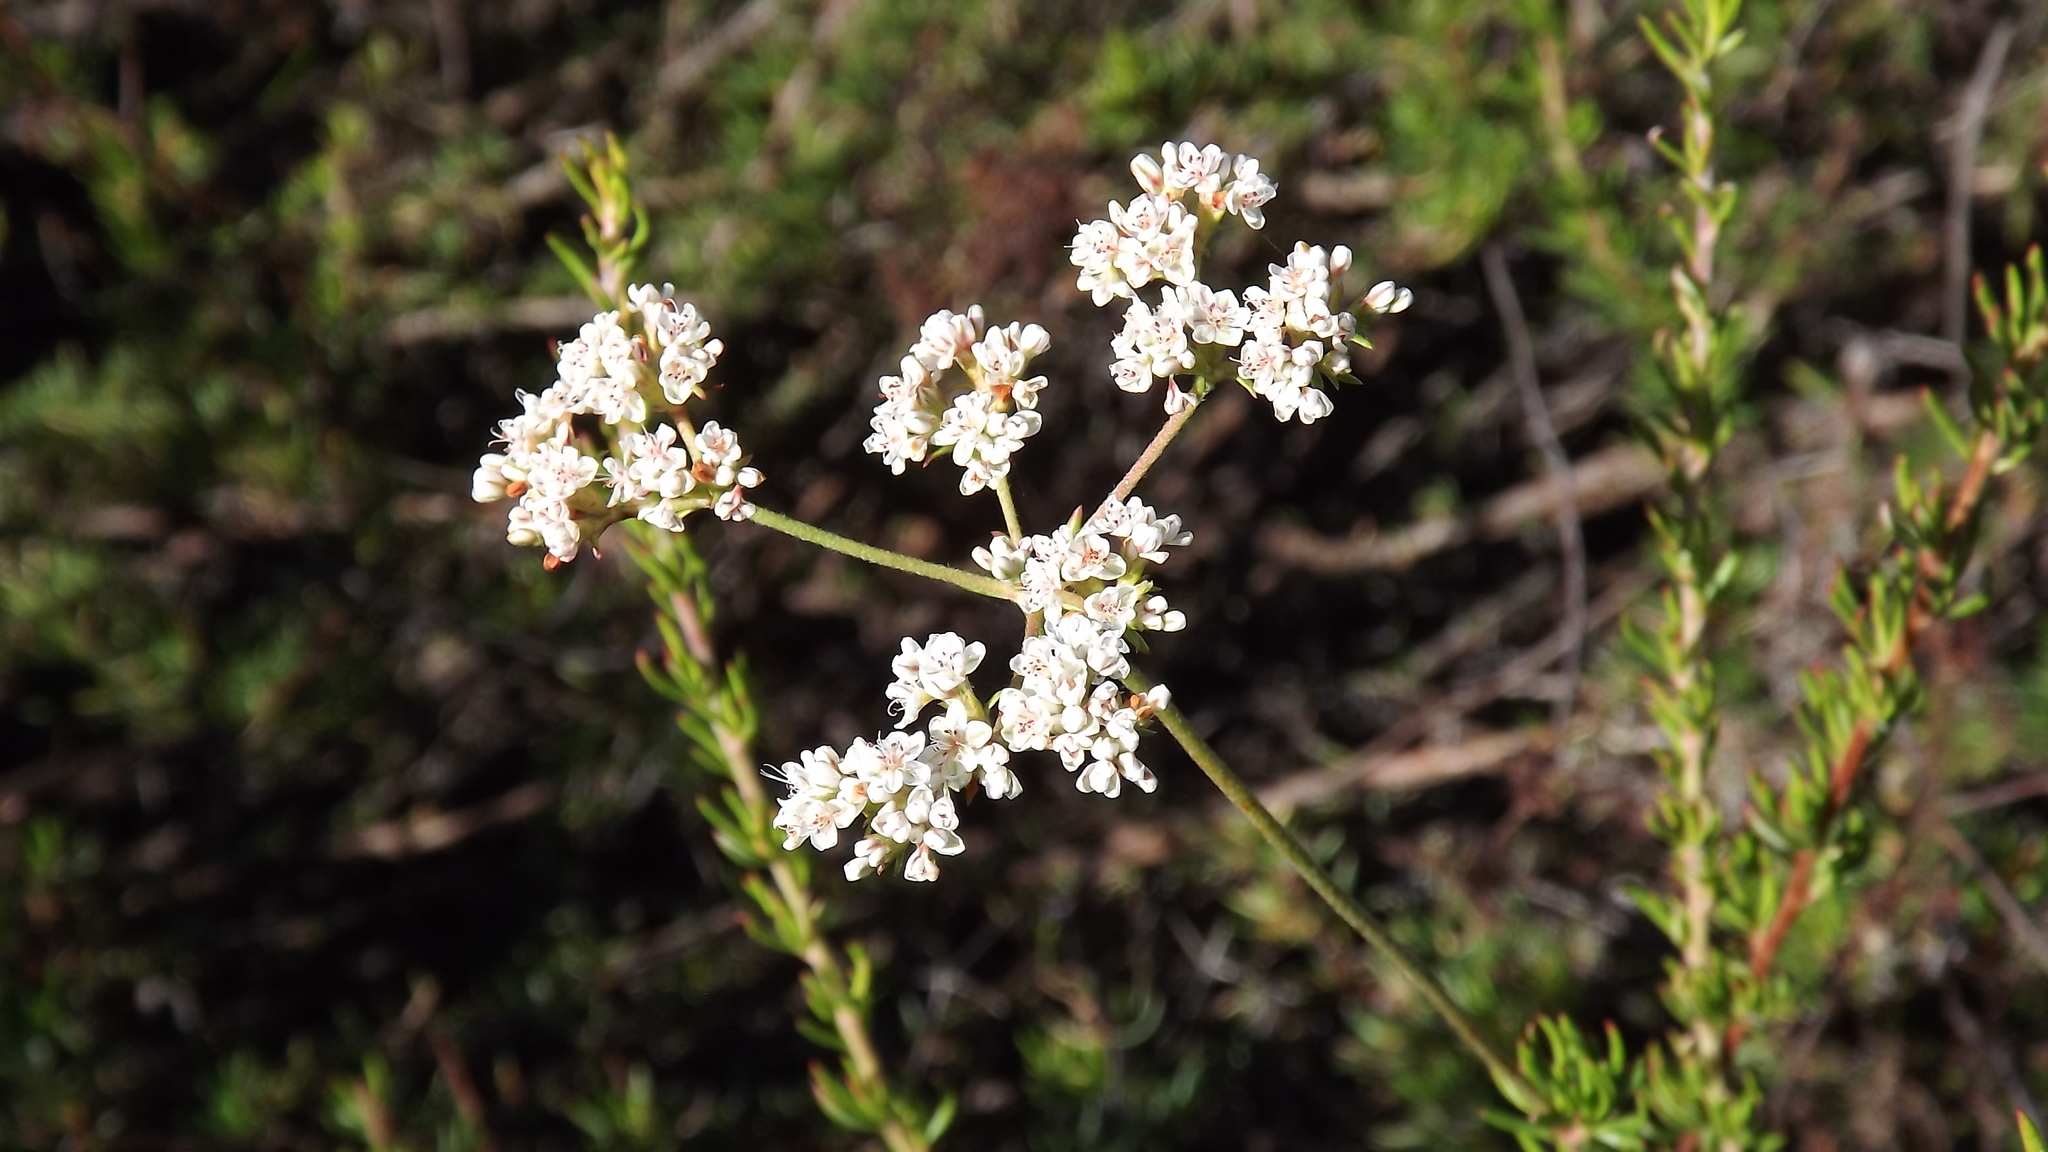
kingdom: Plantae
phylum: Tracheophyta
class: Magnoliopsida
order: Caryophyllales
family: Polygonaceae
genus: Eriogonum
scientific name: Eriogonum fasciculatum
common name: California wild buckwheat
